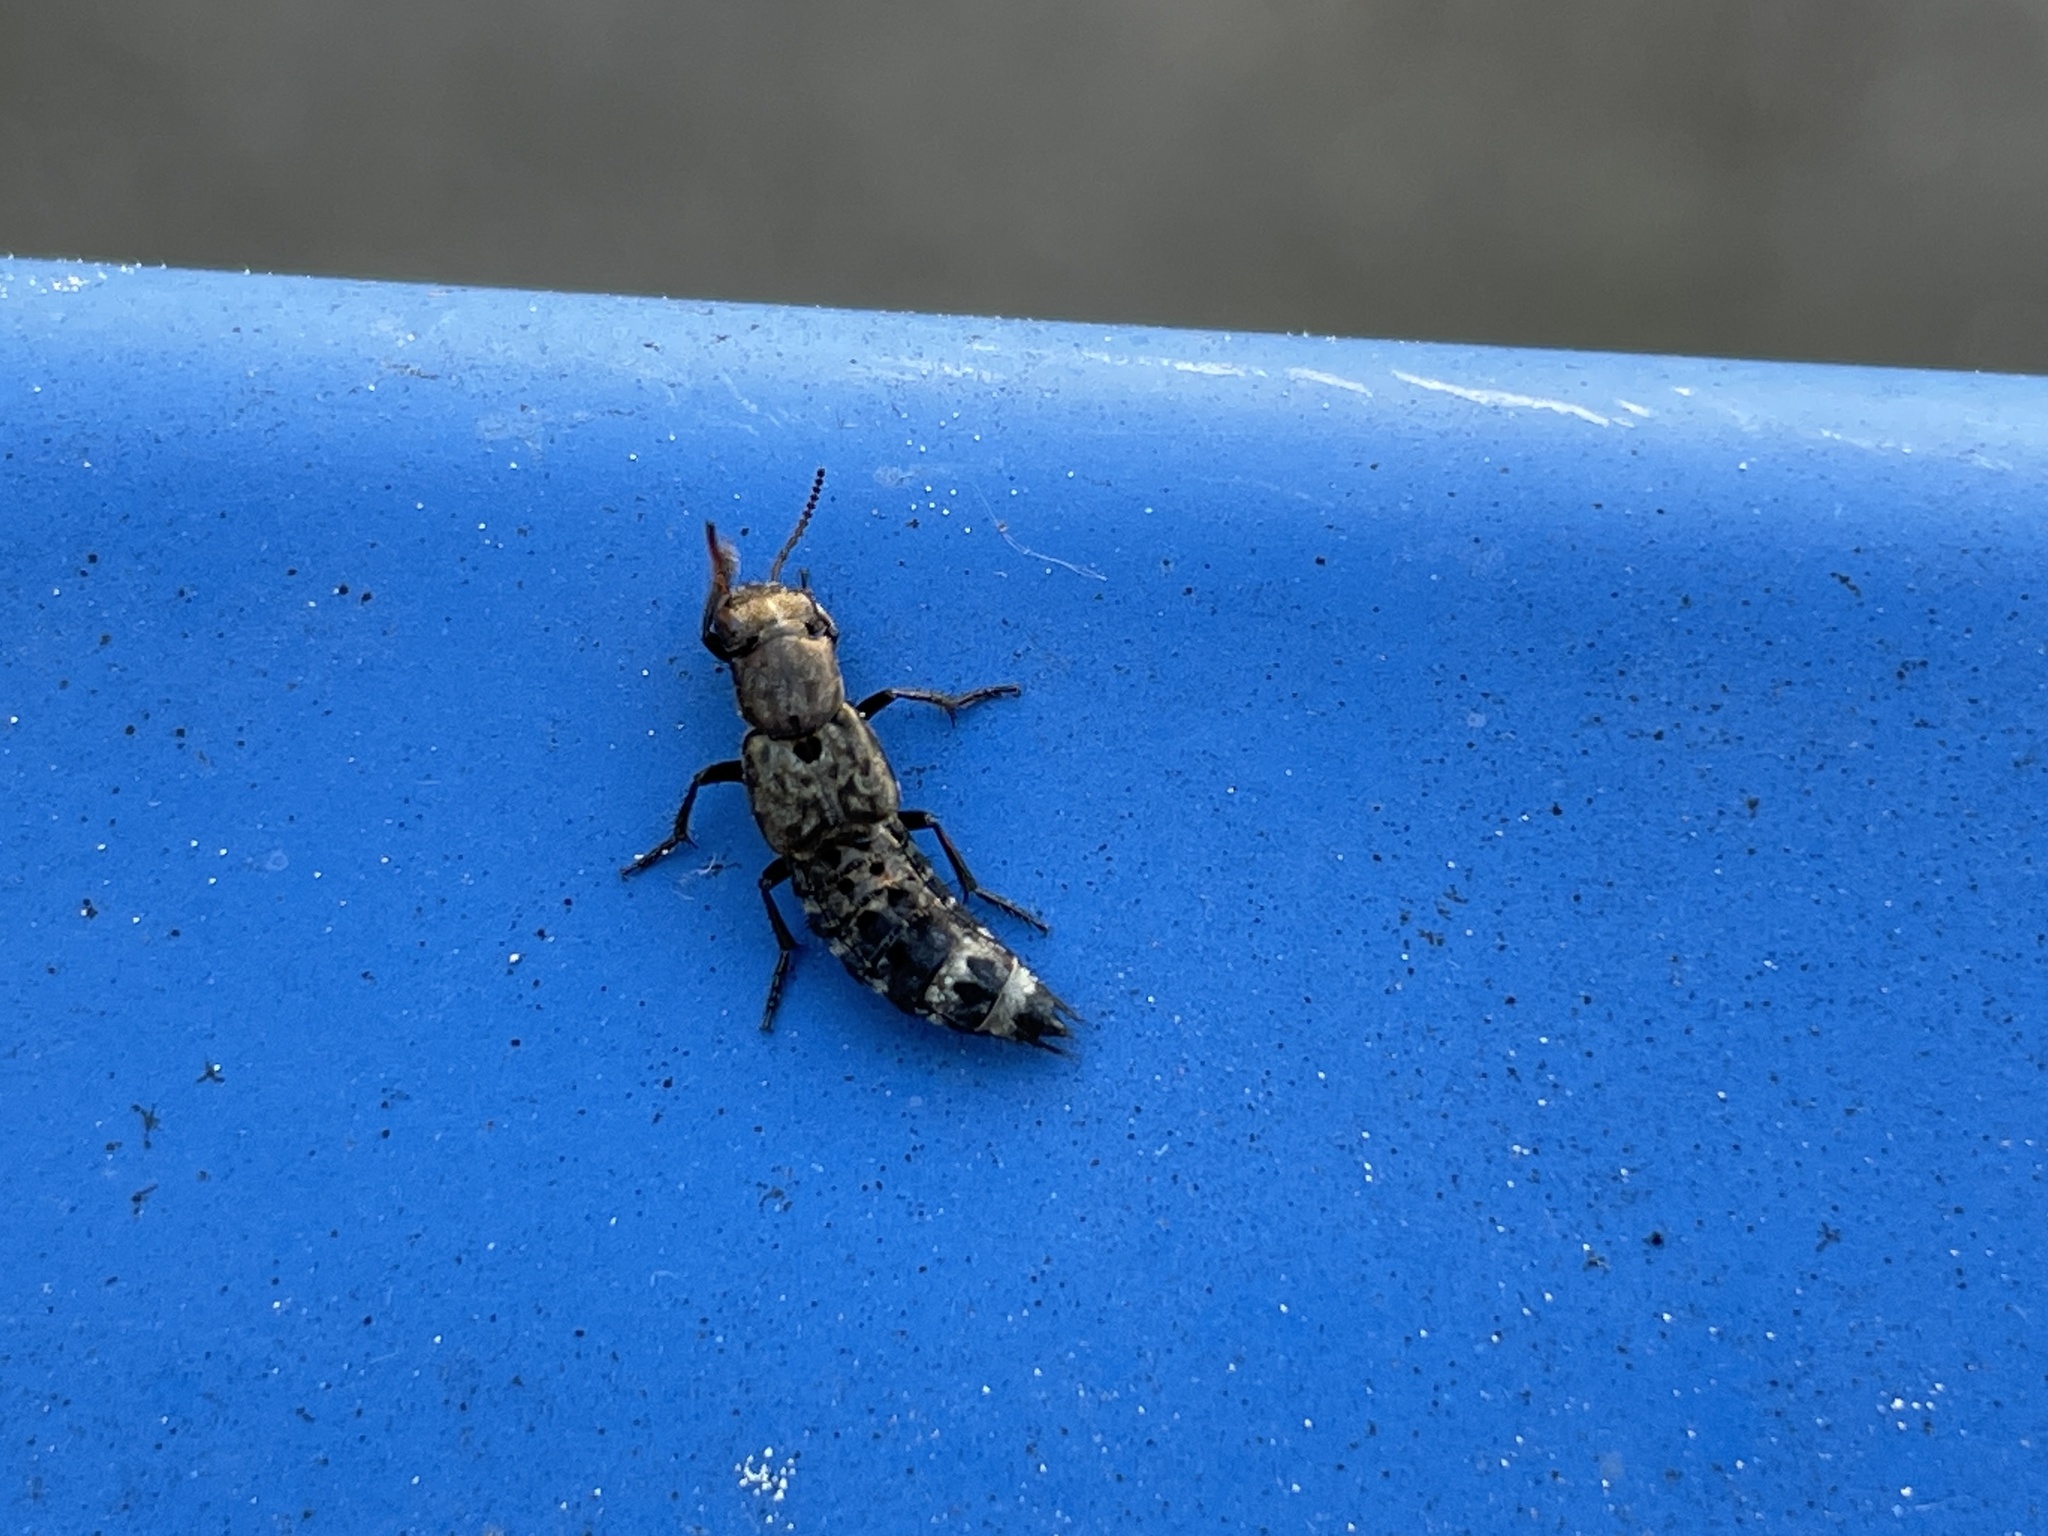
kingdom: Animalia
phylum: Arthropoda
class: Insecta
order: Coleoptera
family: Staphylinidae
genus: Ontholestes
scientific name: Ontholestes murinus
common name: Staph beetle
